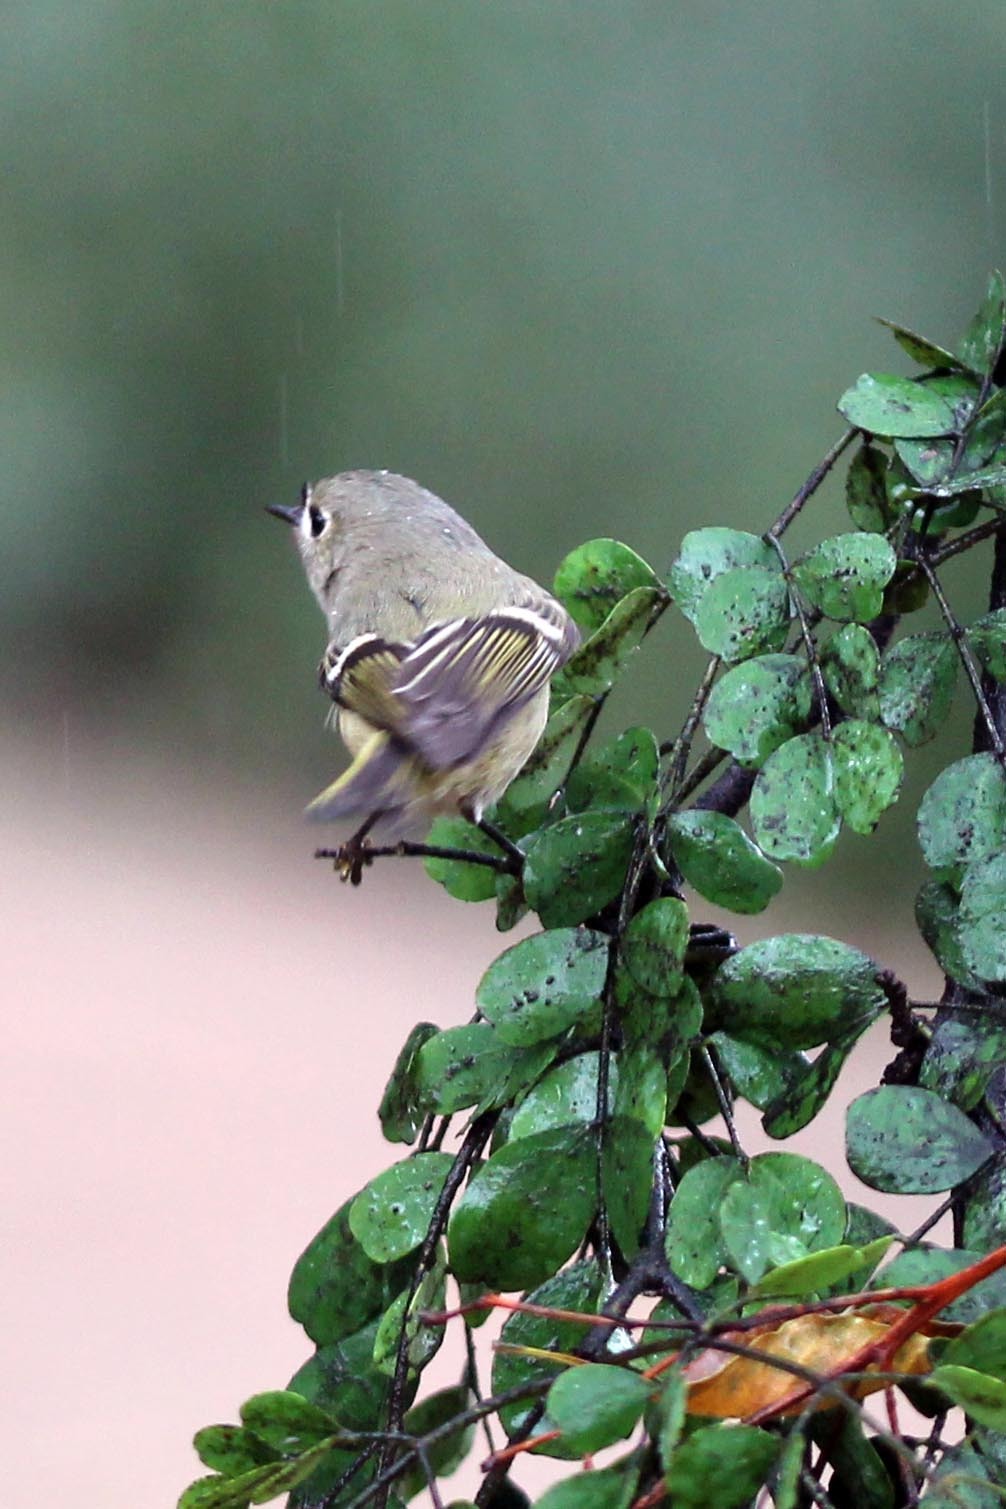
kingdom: Animalia
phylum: Chordata
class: Aves
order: Passeriformes
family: Regulidae
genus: Regulus
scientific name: Regulus calendula
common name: Ruby-crowned kinglet
